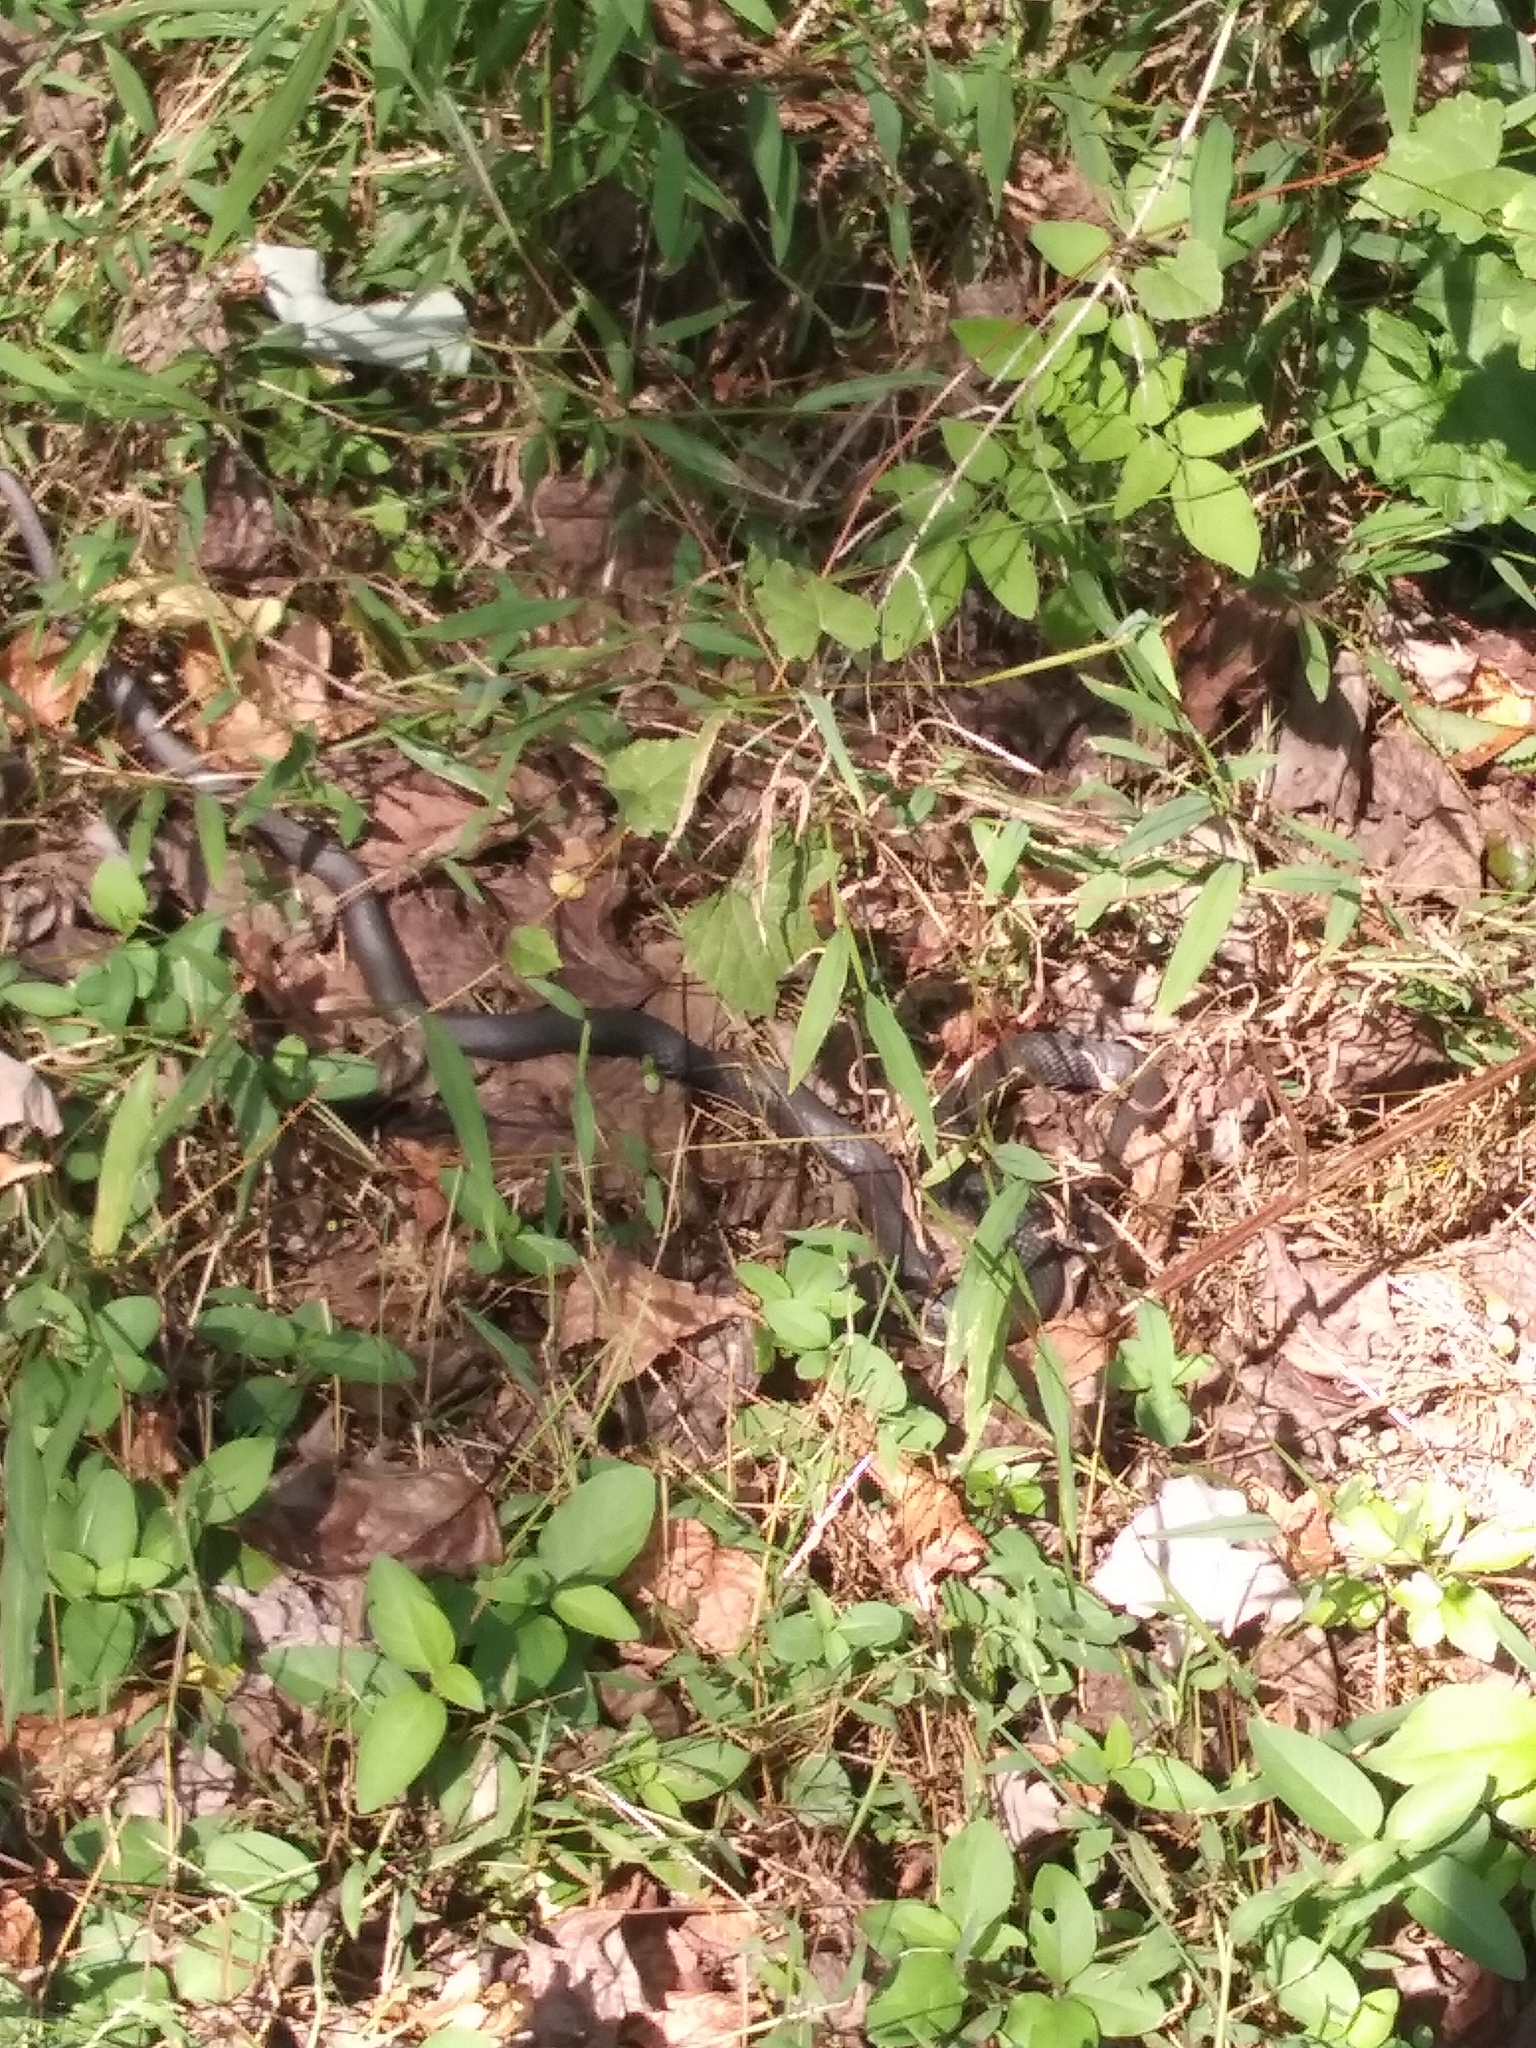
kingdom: Animalia
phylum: Chordata
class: Squamata
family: Colubridae
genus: Coluber
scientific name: Coluber constrictor
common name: Eastern racer
